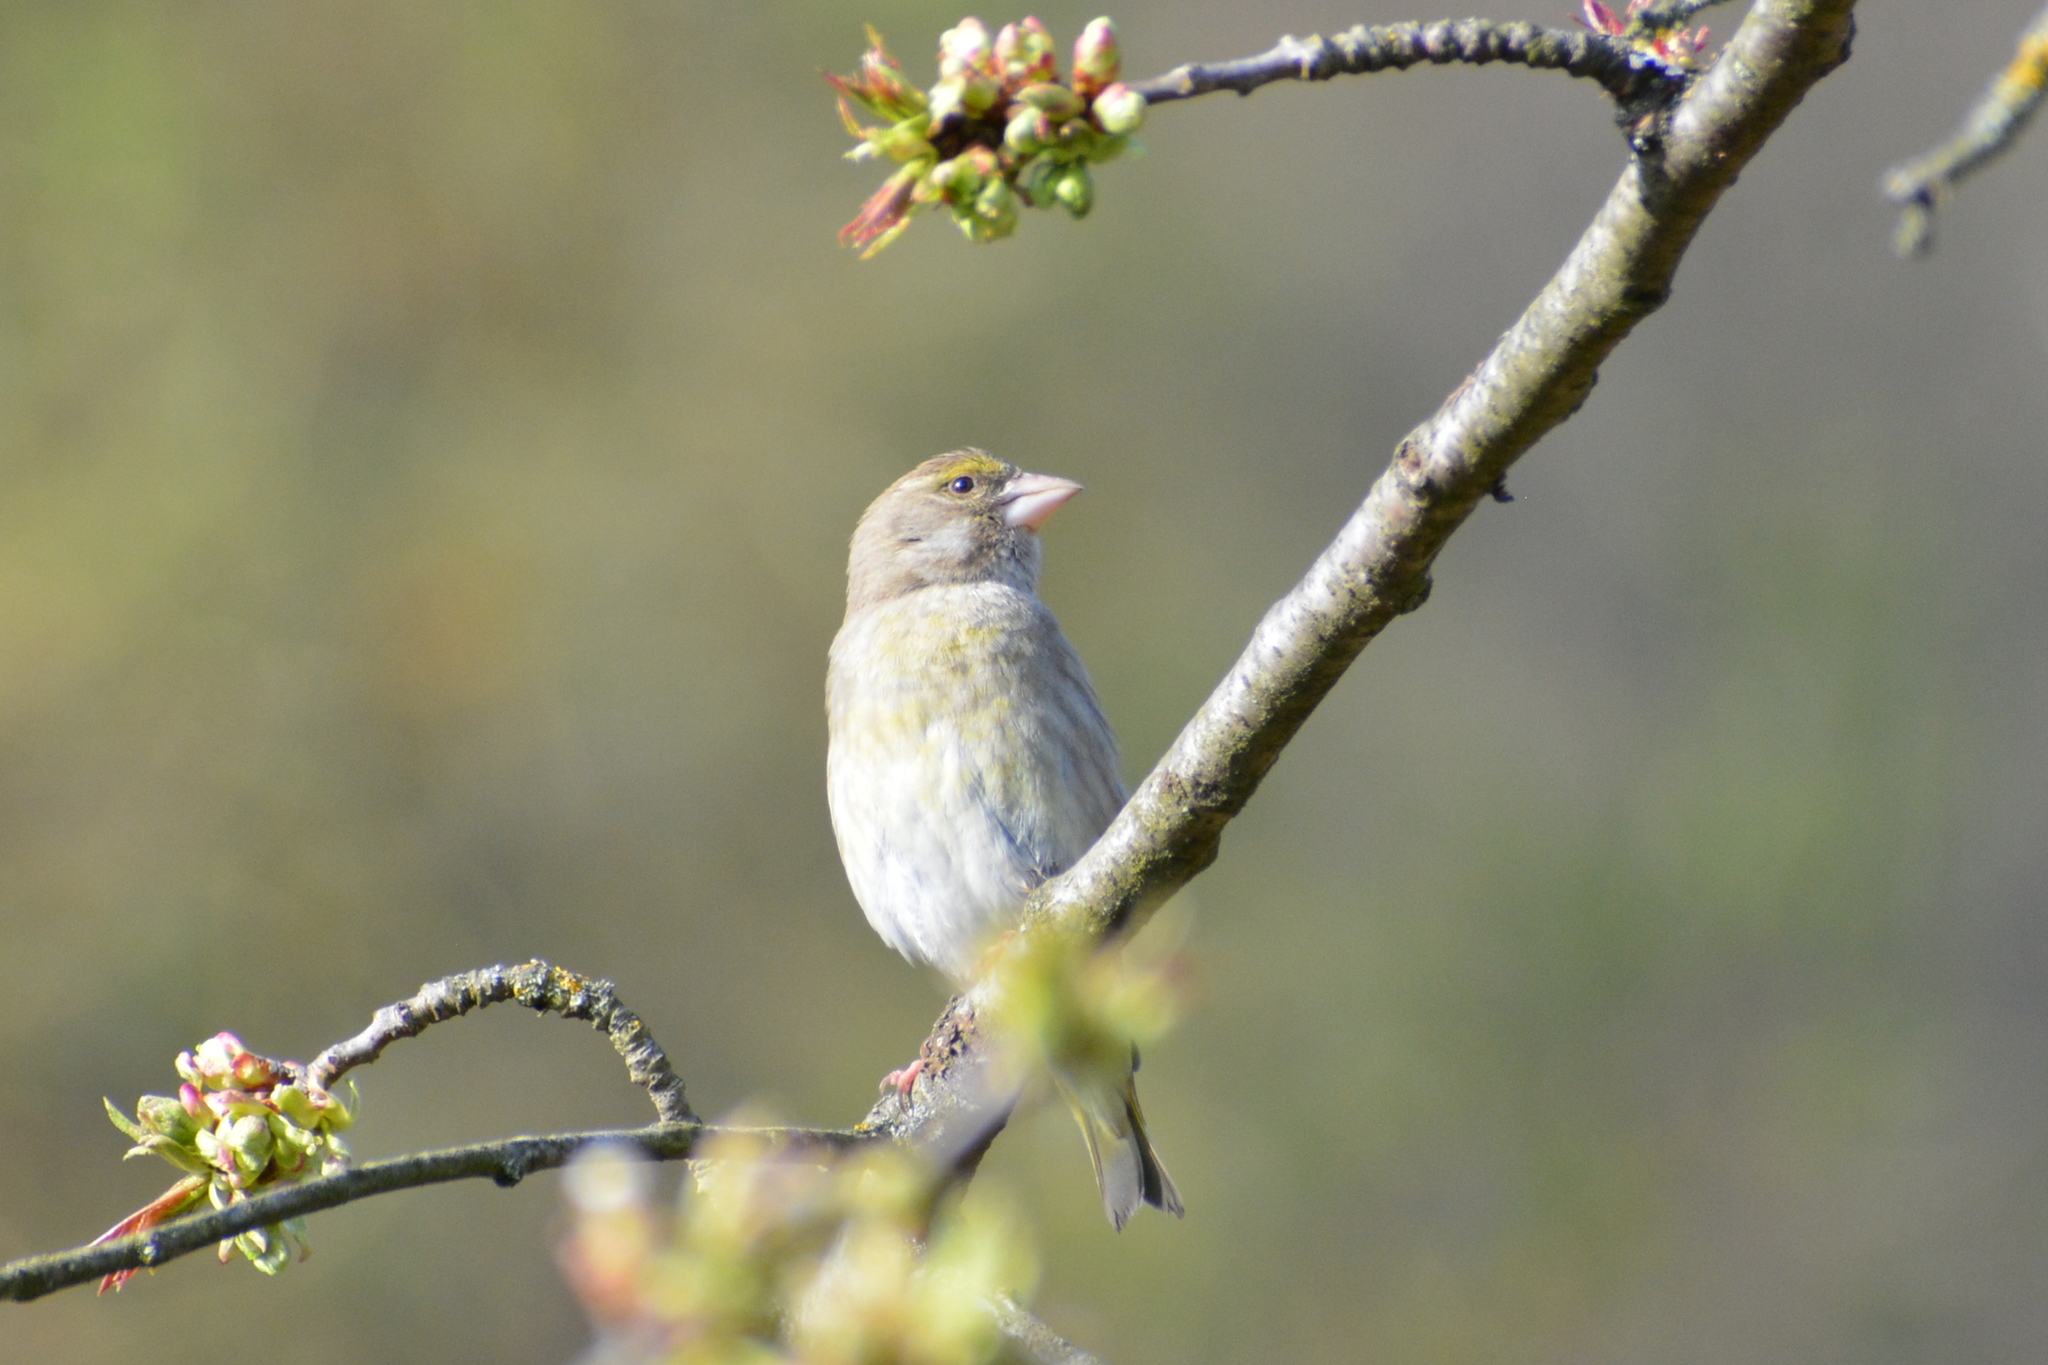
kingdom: Plantae
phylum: Tracheophyta
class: Liliopsida
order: Poales
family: Poaceae
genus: Chloris
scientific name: Chloris chloris
